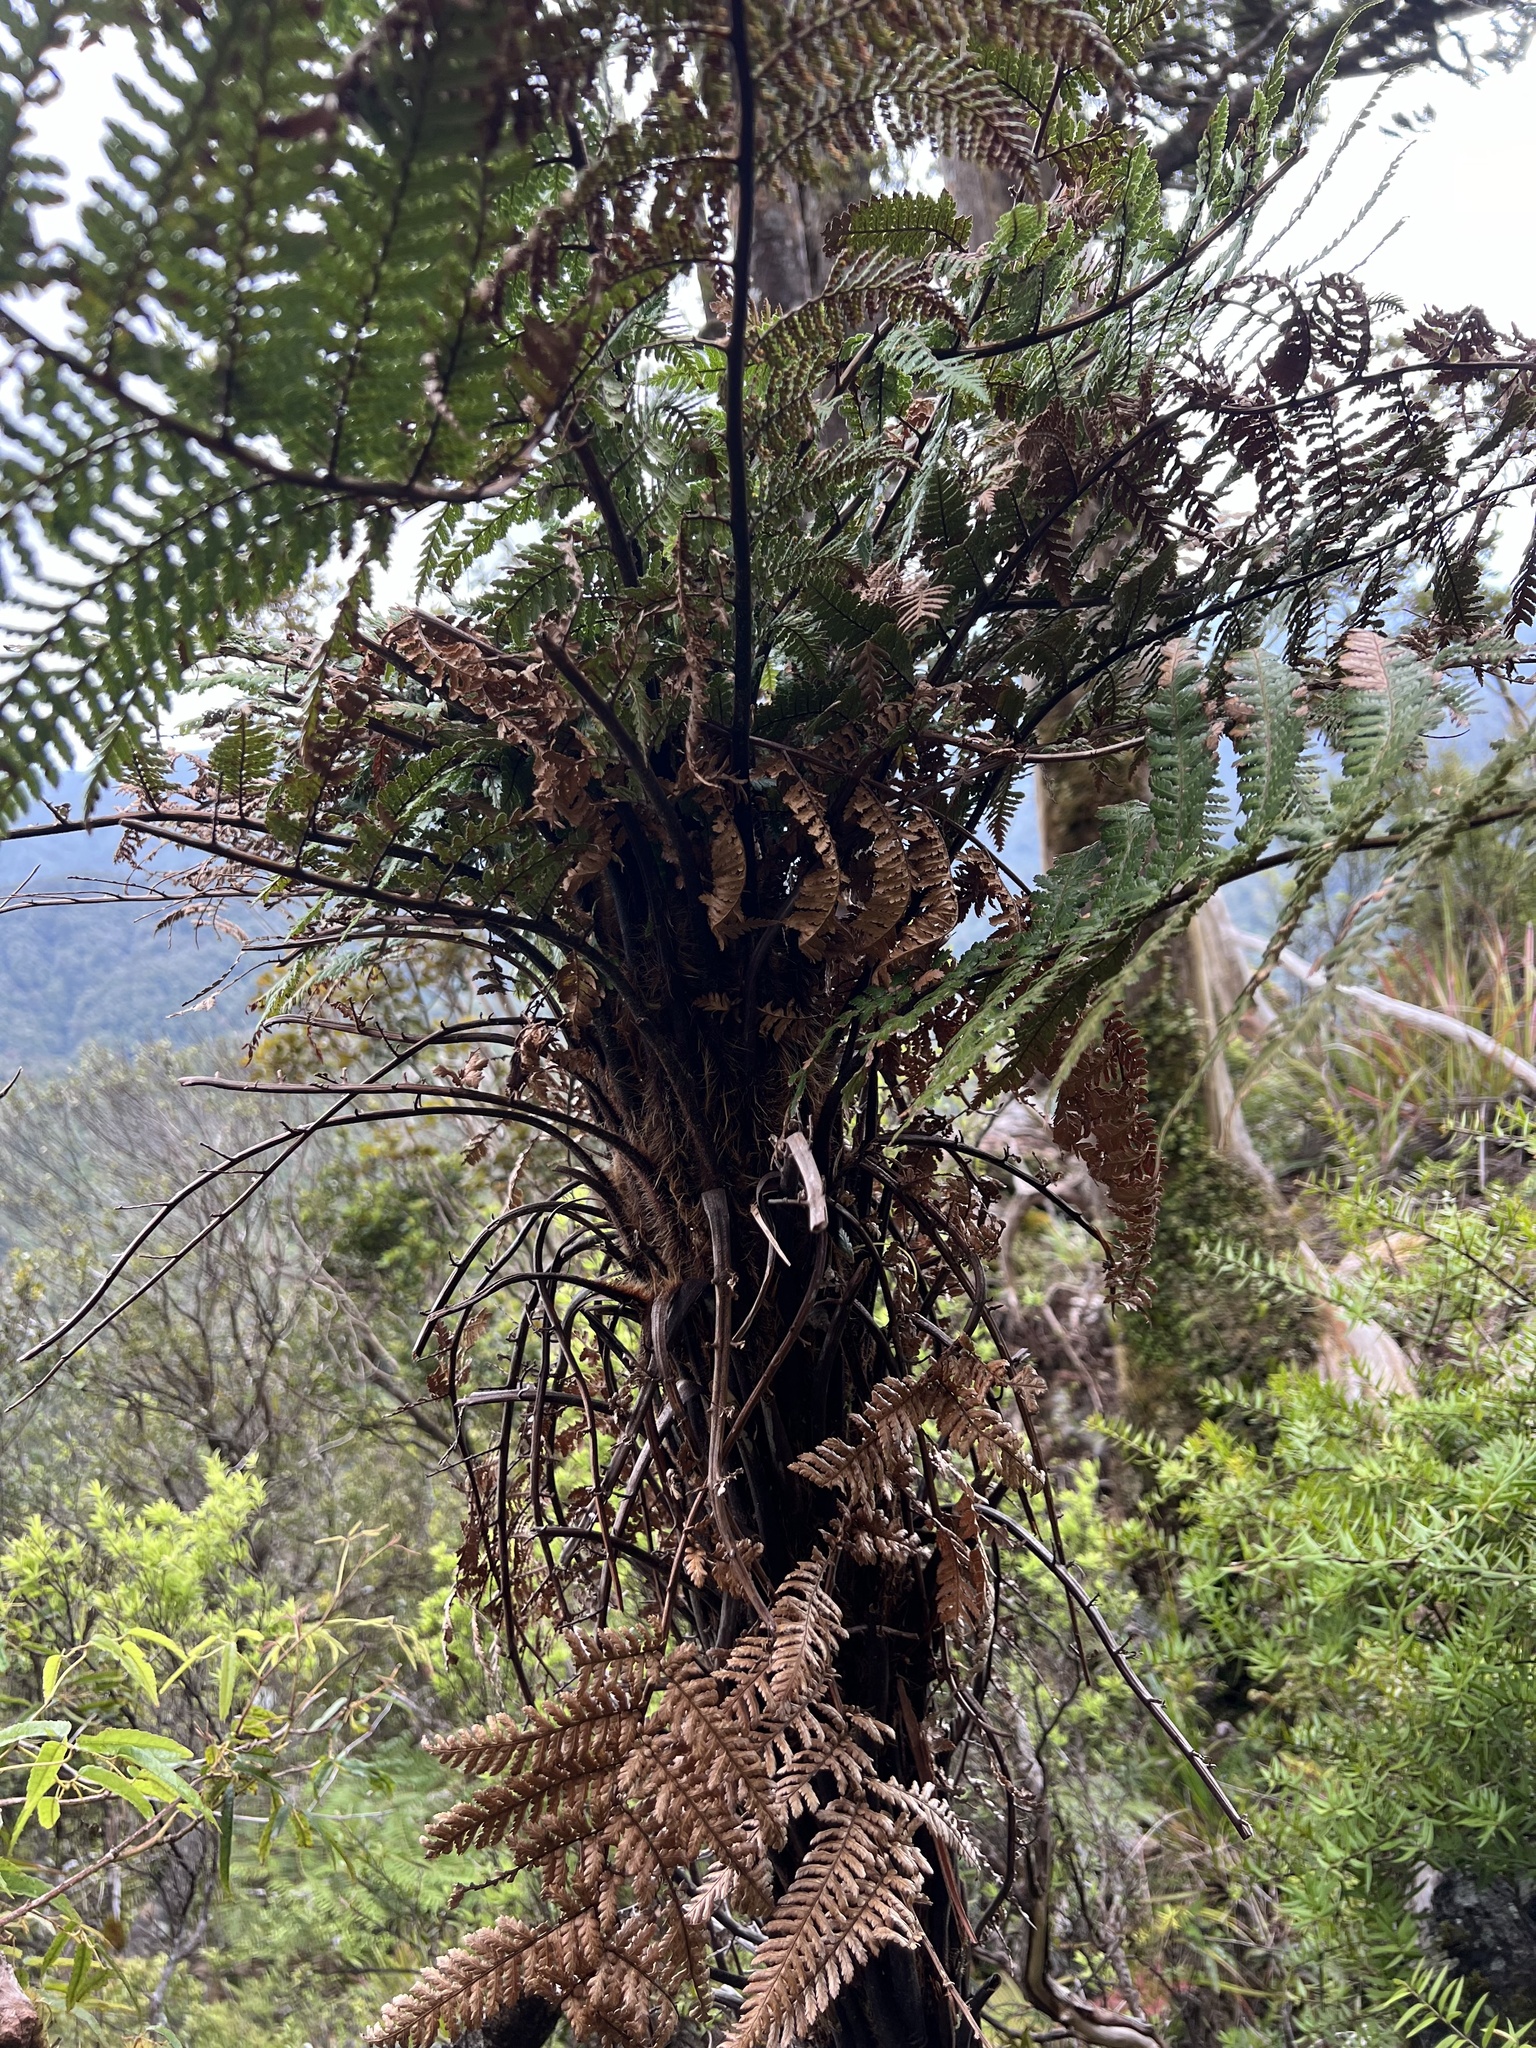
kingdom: Plantae
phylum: Tracheophyta
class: Polypodiopsida
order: Cyatheales
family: Dicksoniaceae
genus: Dicksonia
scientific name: Dicksonia squarrosa
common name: Hard treefern
